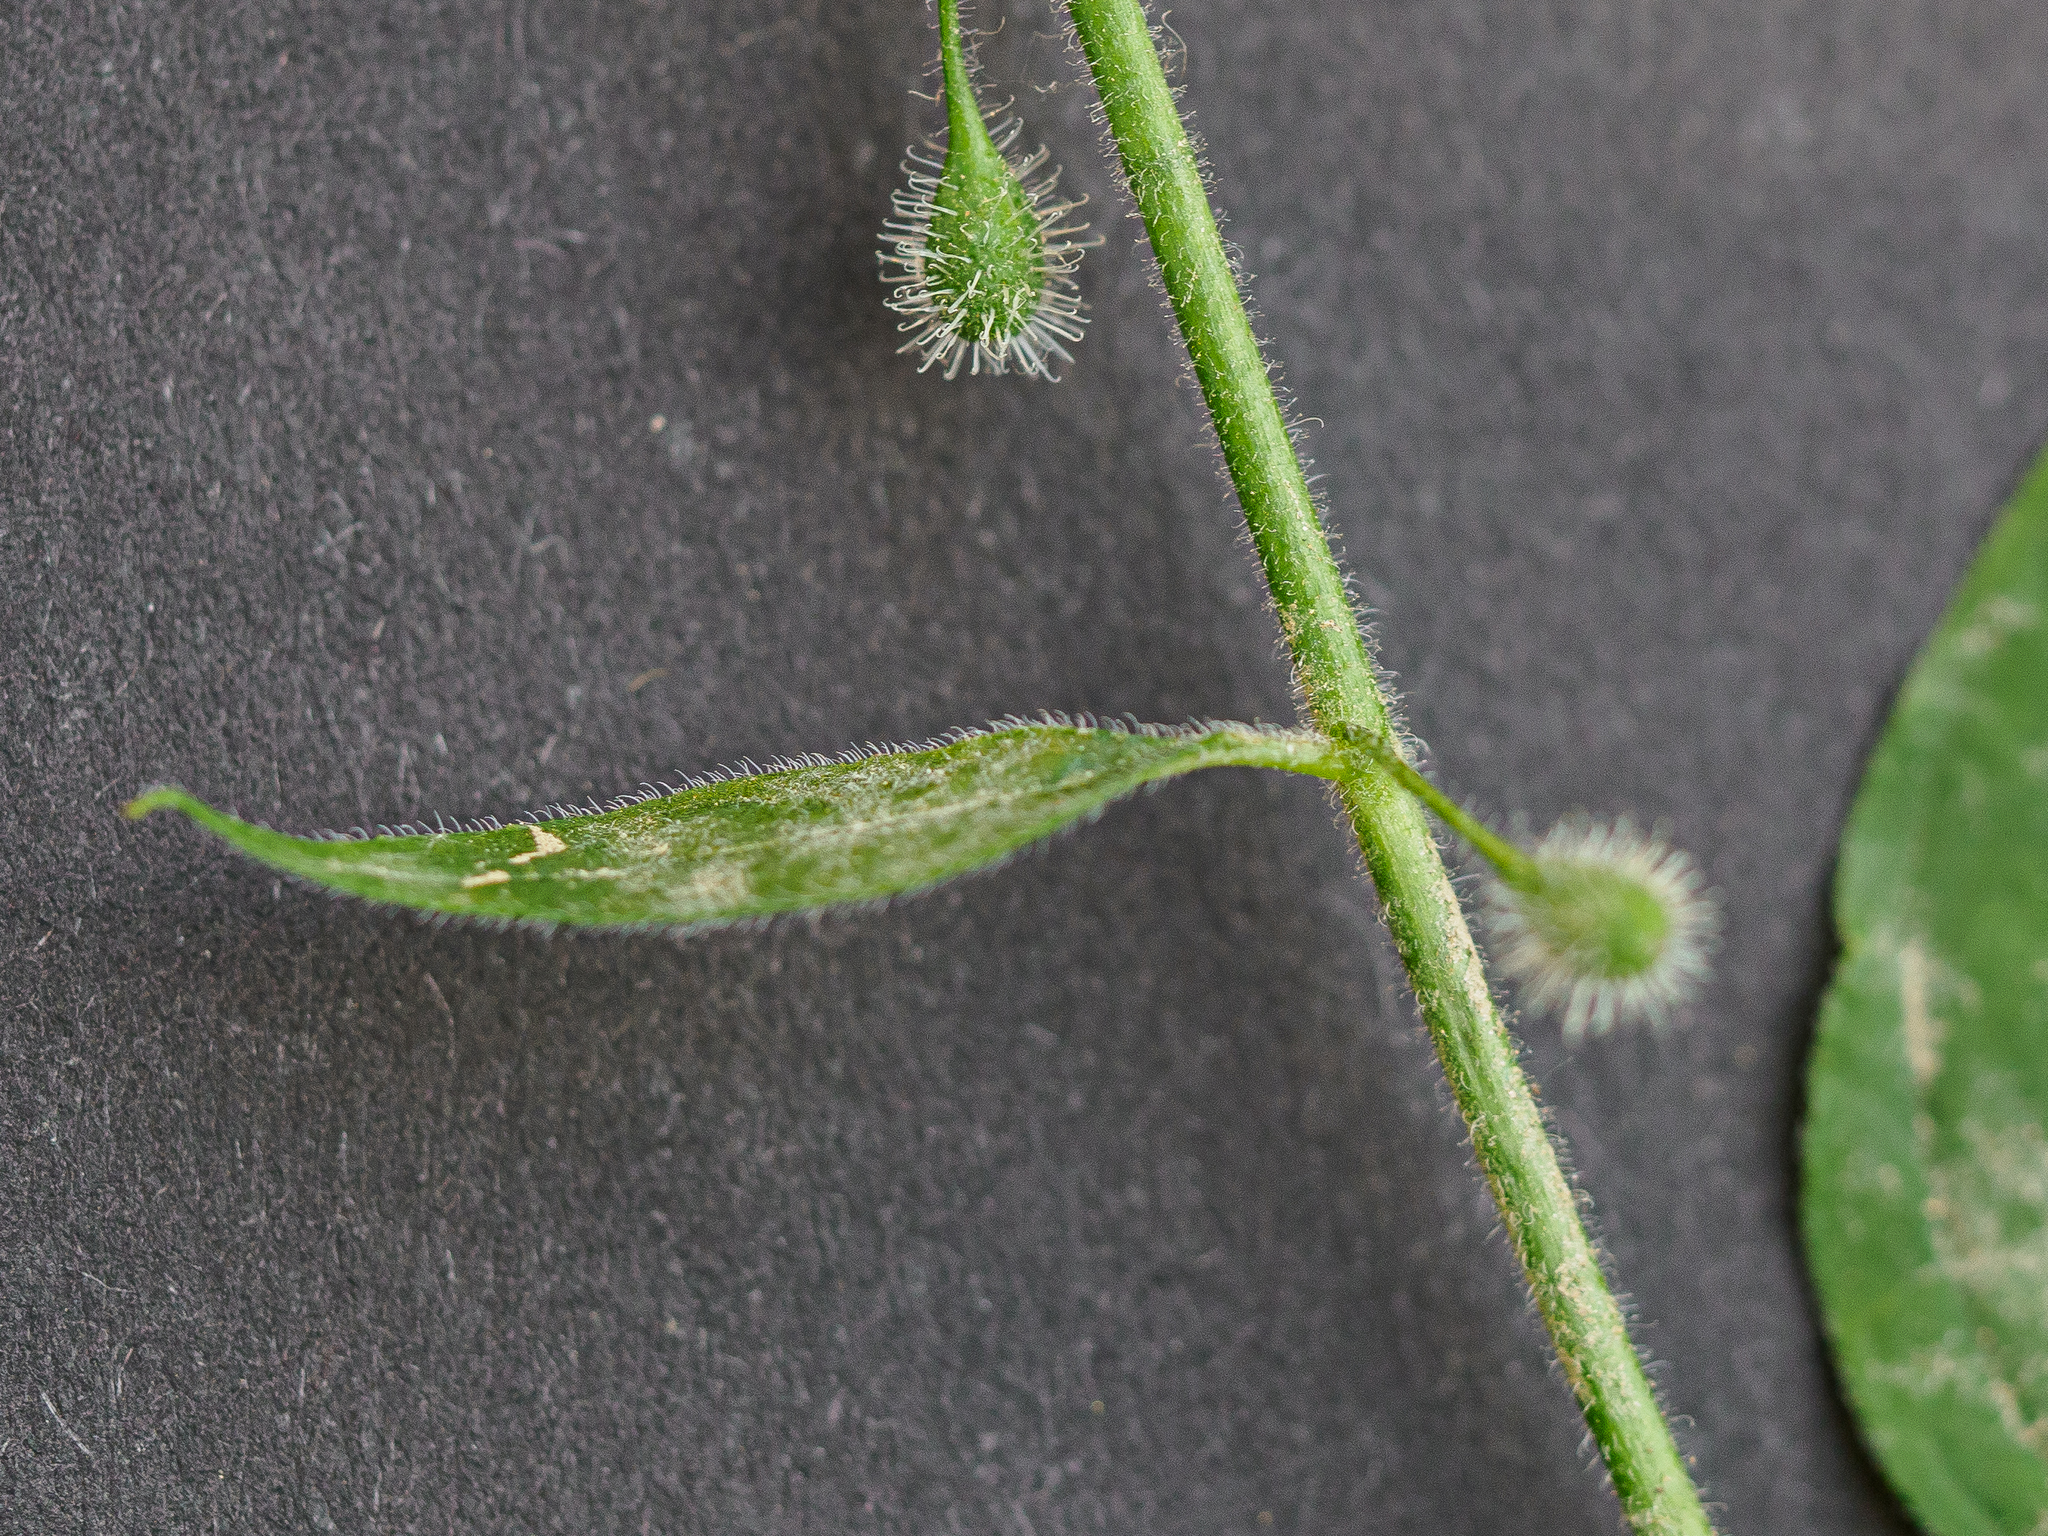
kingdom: Plantae
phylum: Tracheophyta
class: Magnoliopsida
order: Myrtales
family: Onagraceae
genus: Circaea
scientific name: Circaea lutetiana
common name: Enchanter's-nightshade
